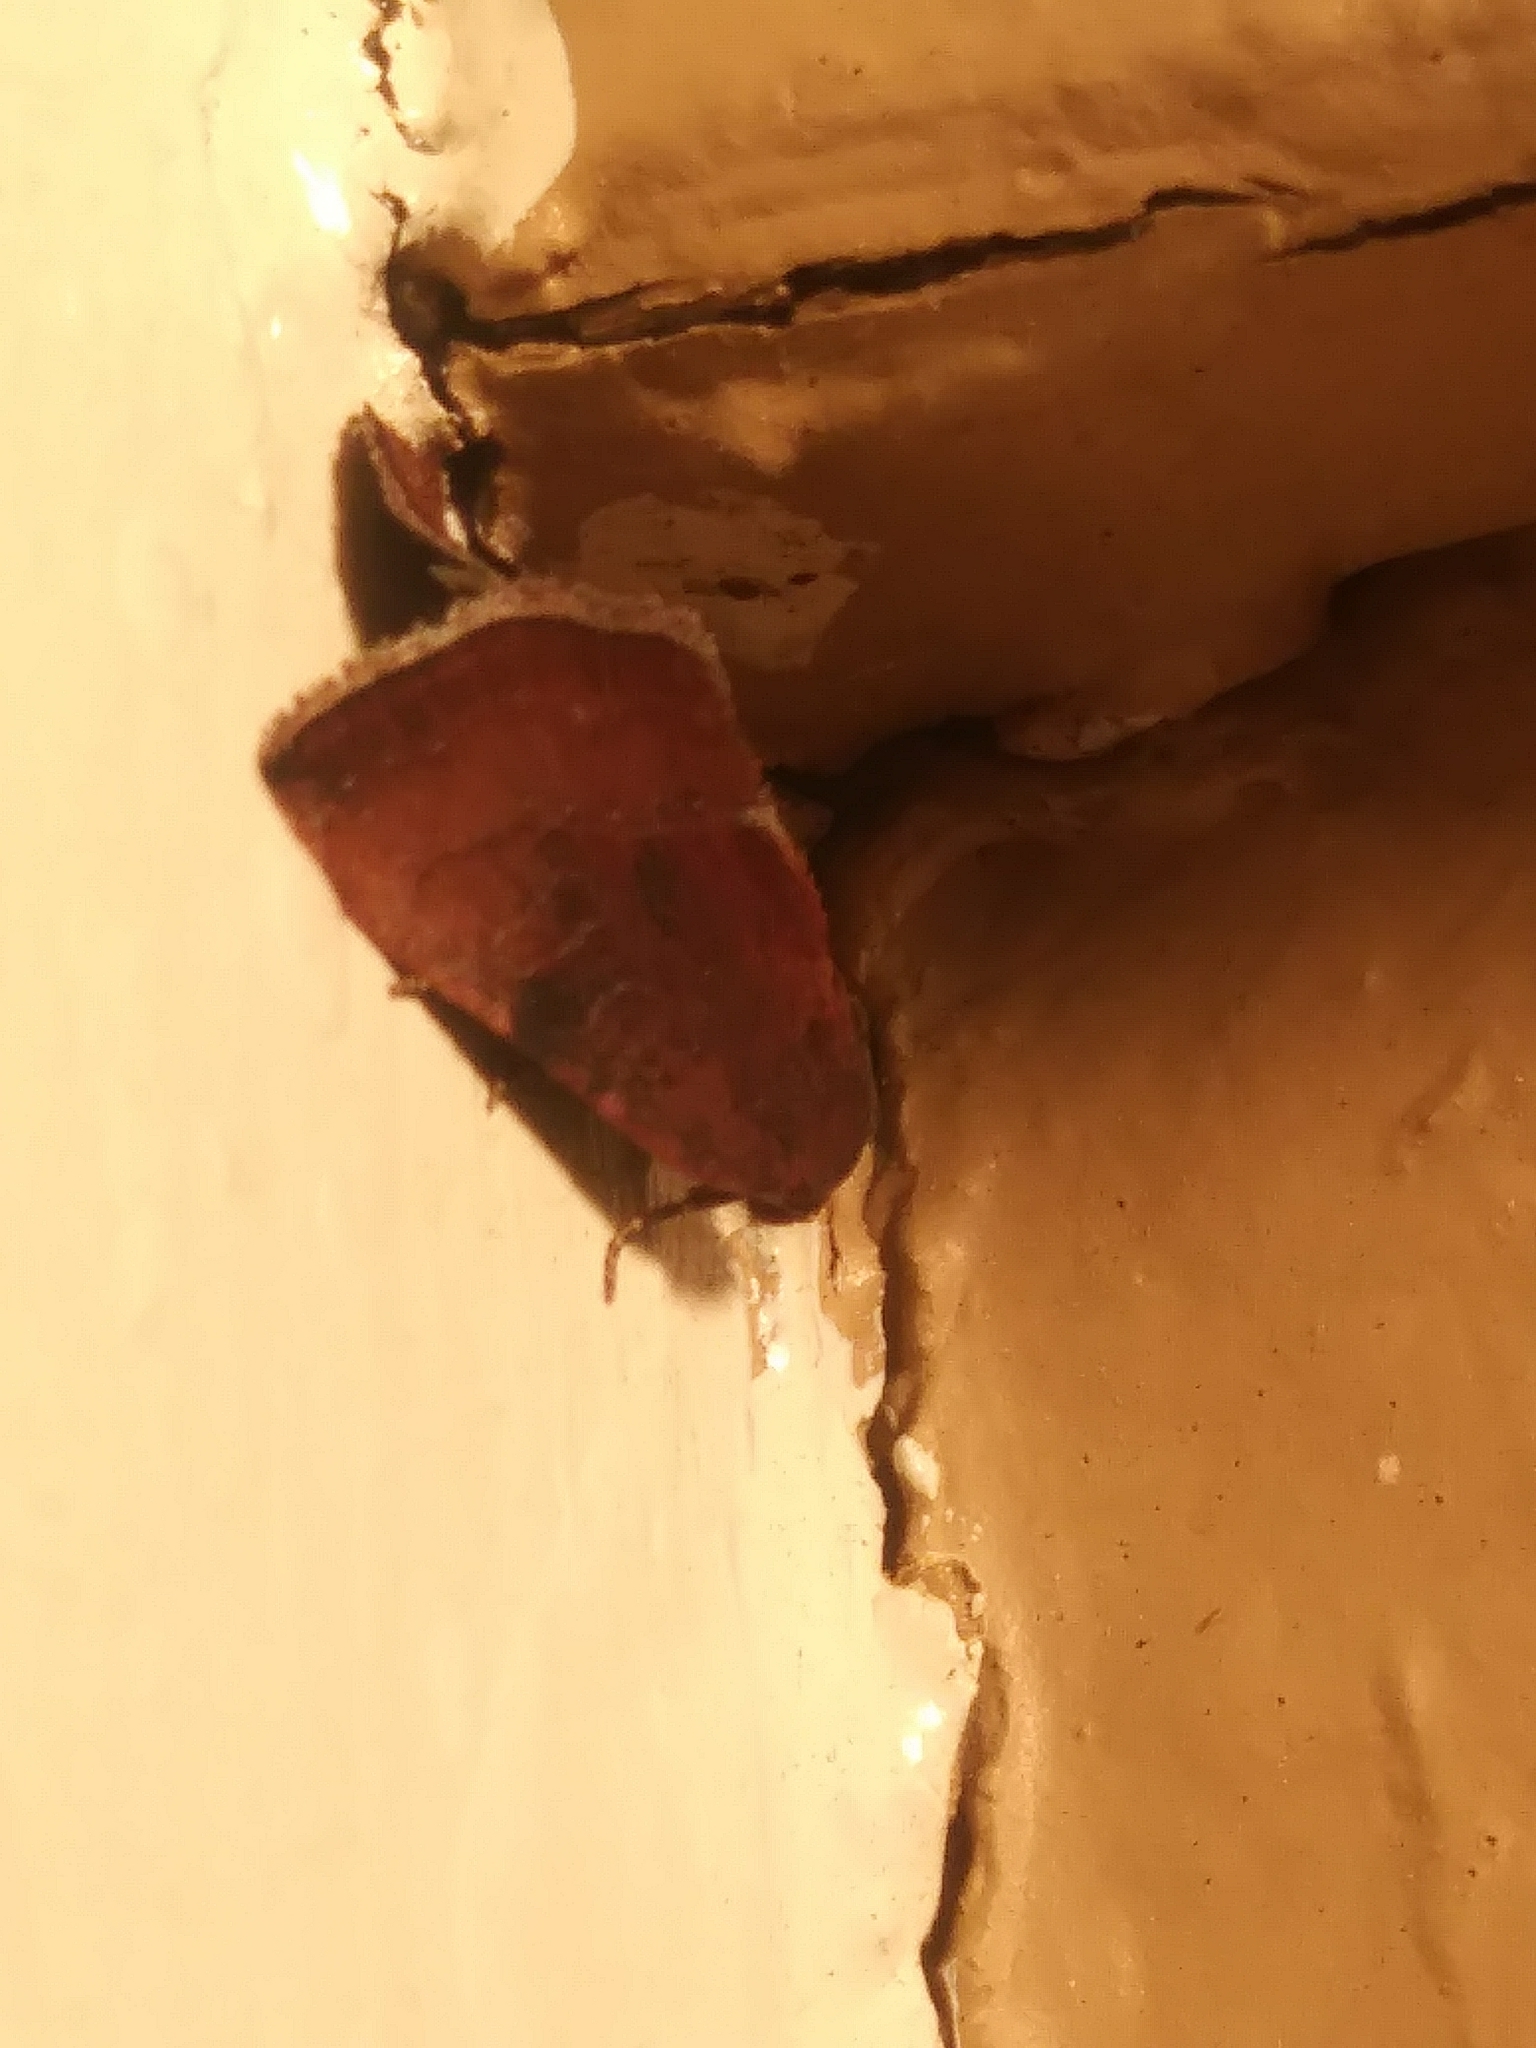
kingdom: Animalia
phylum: Arthropoda
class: Insecta
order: Lepidoptera
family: Noctuidae
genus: Galgula
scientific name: Galgula partita
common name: Wedgeling
